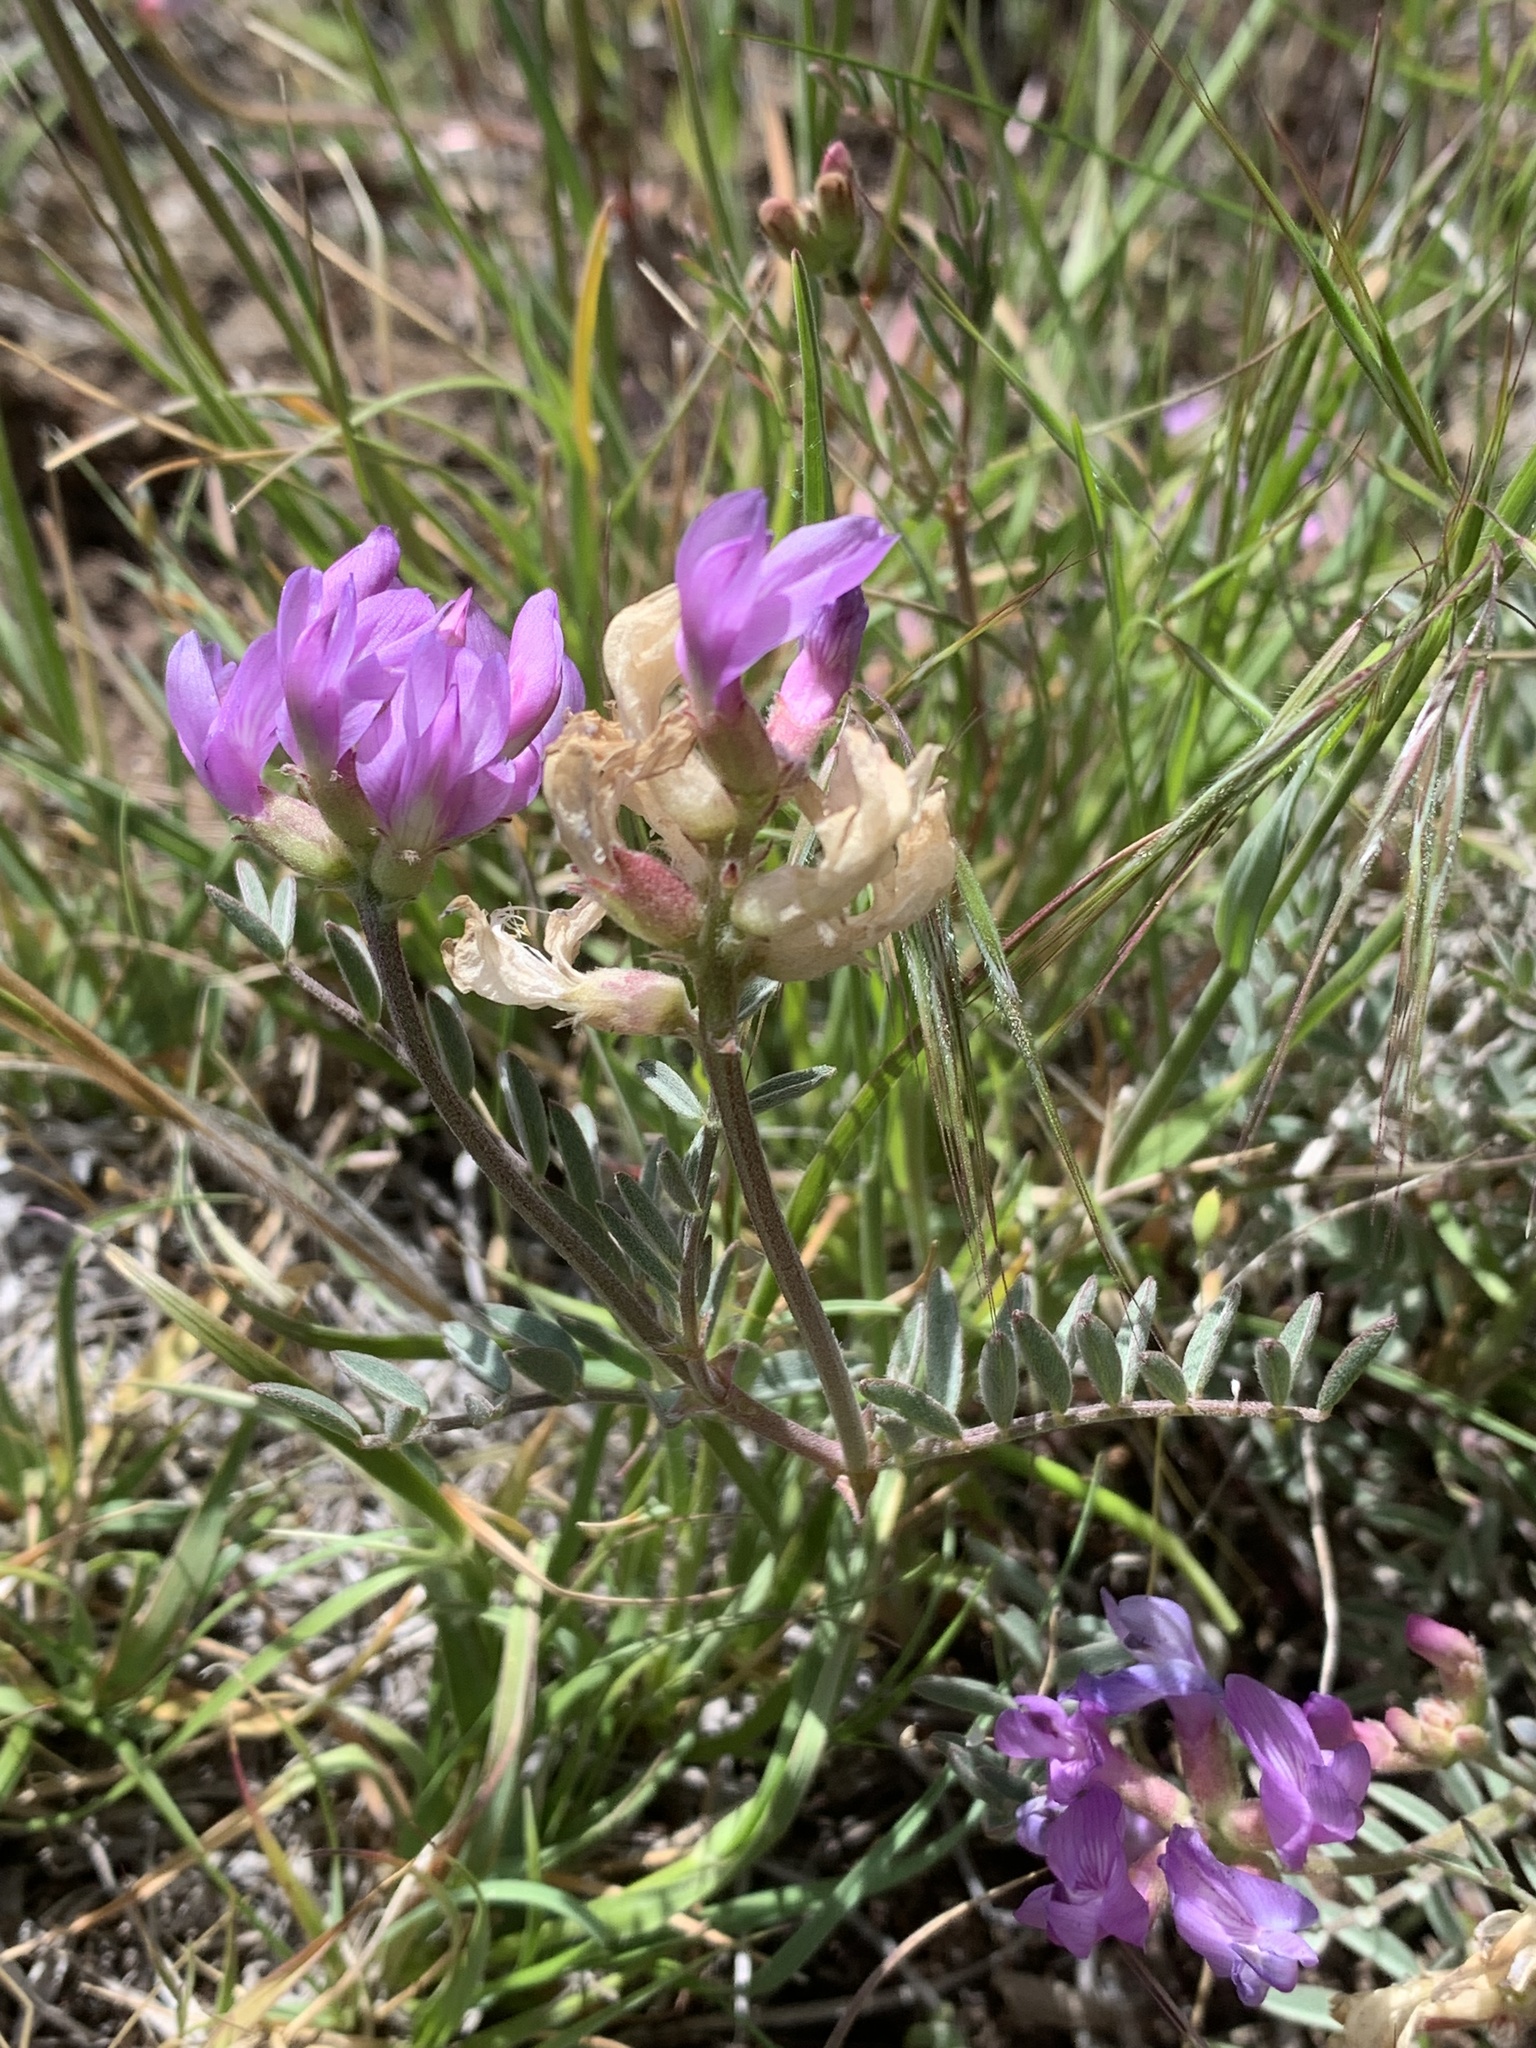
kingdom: Plantae
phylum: Tracheophyta
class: Magnoliopsida
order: Fabales
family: Fabaceae
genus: Astragalus
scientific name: Astragalus whitneyi
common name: Balloonpod milkvetch
